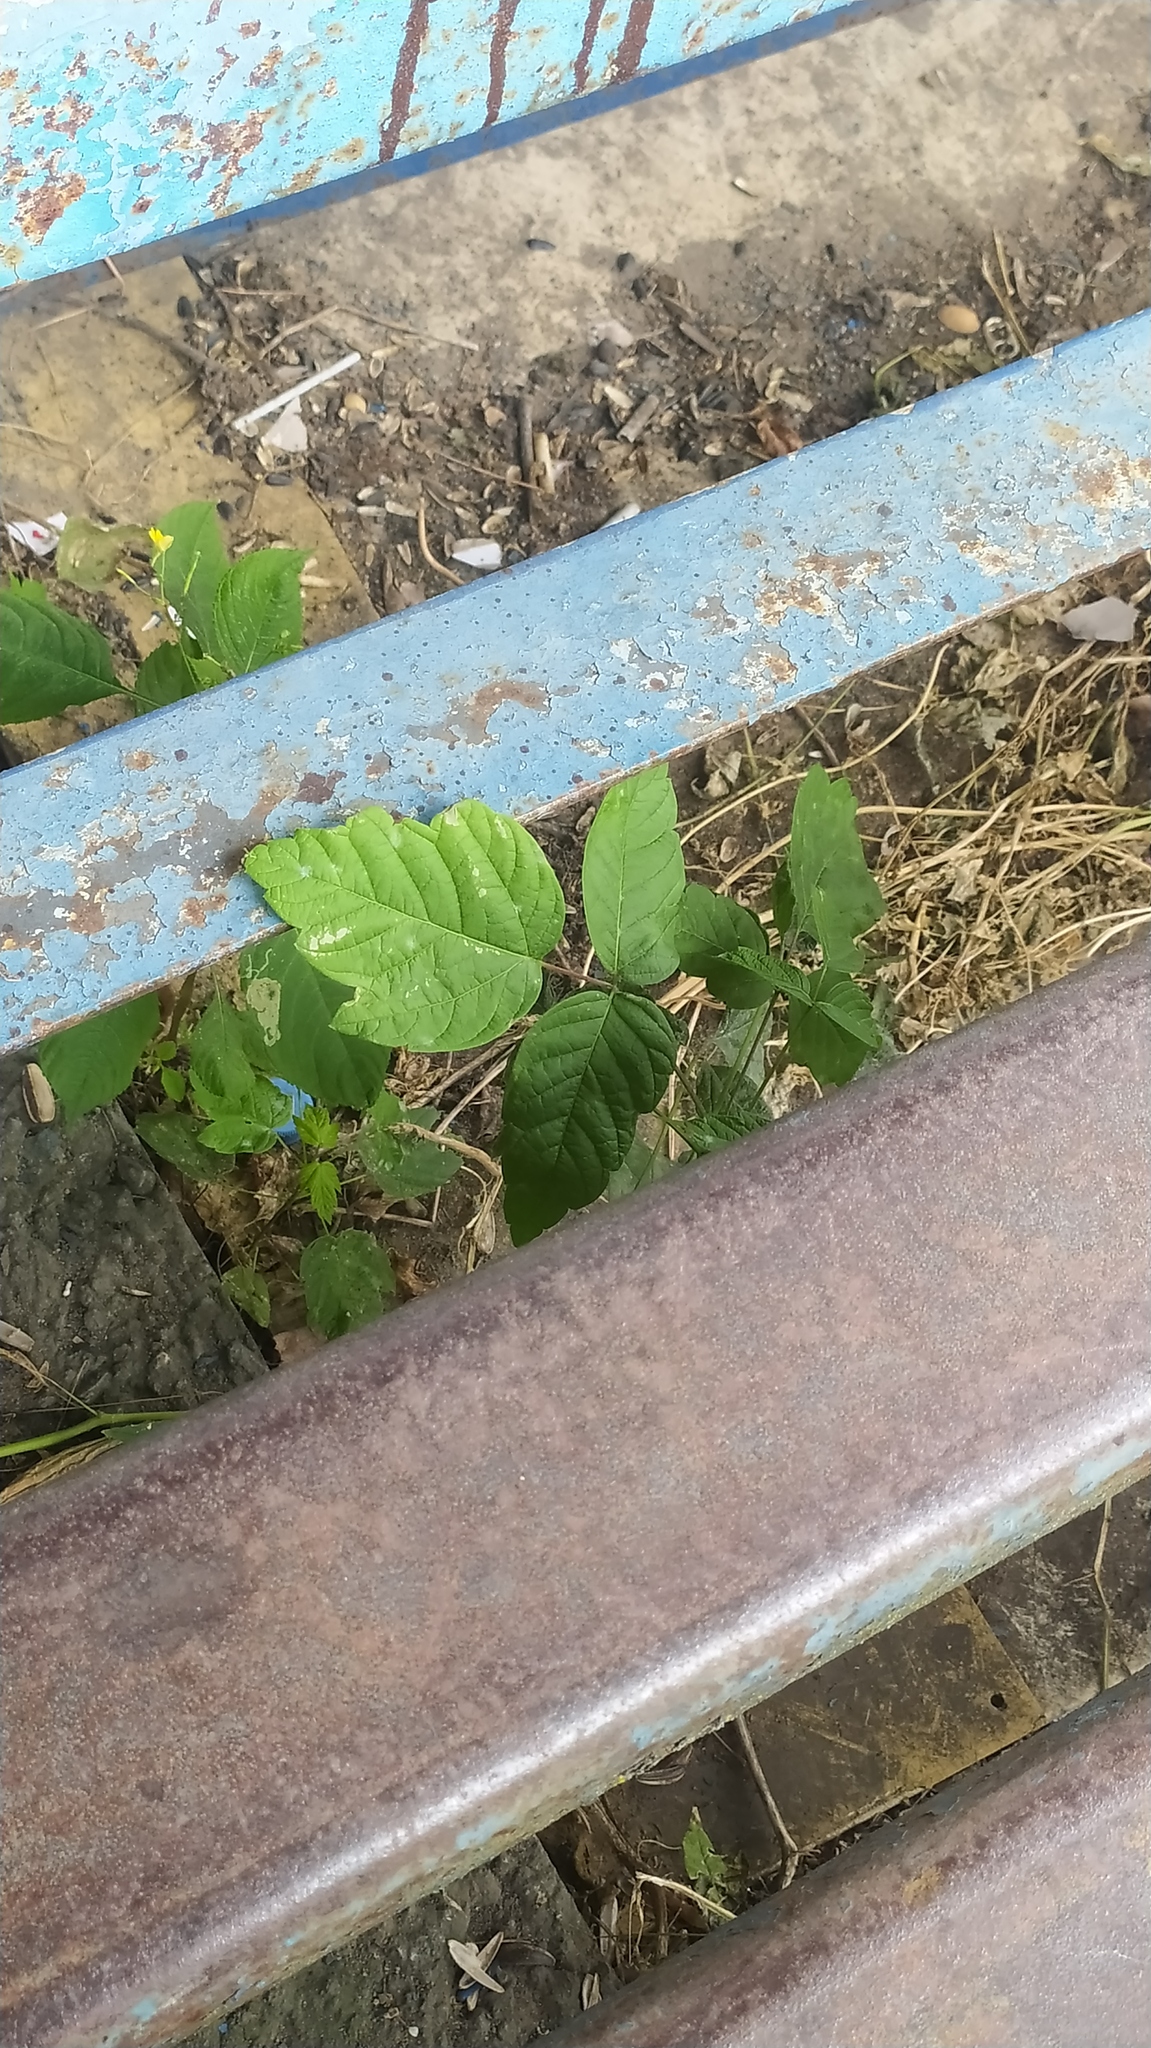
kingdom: Plantae
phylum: Tracheophyta
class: Magnoliopsida
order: Sapindales
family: Sapindaceae
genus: Acer
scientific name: Acer negundo
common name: Ashleaf maple
